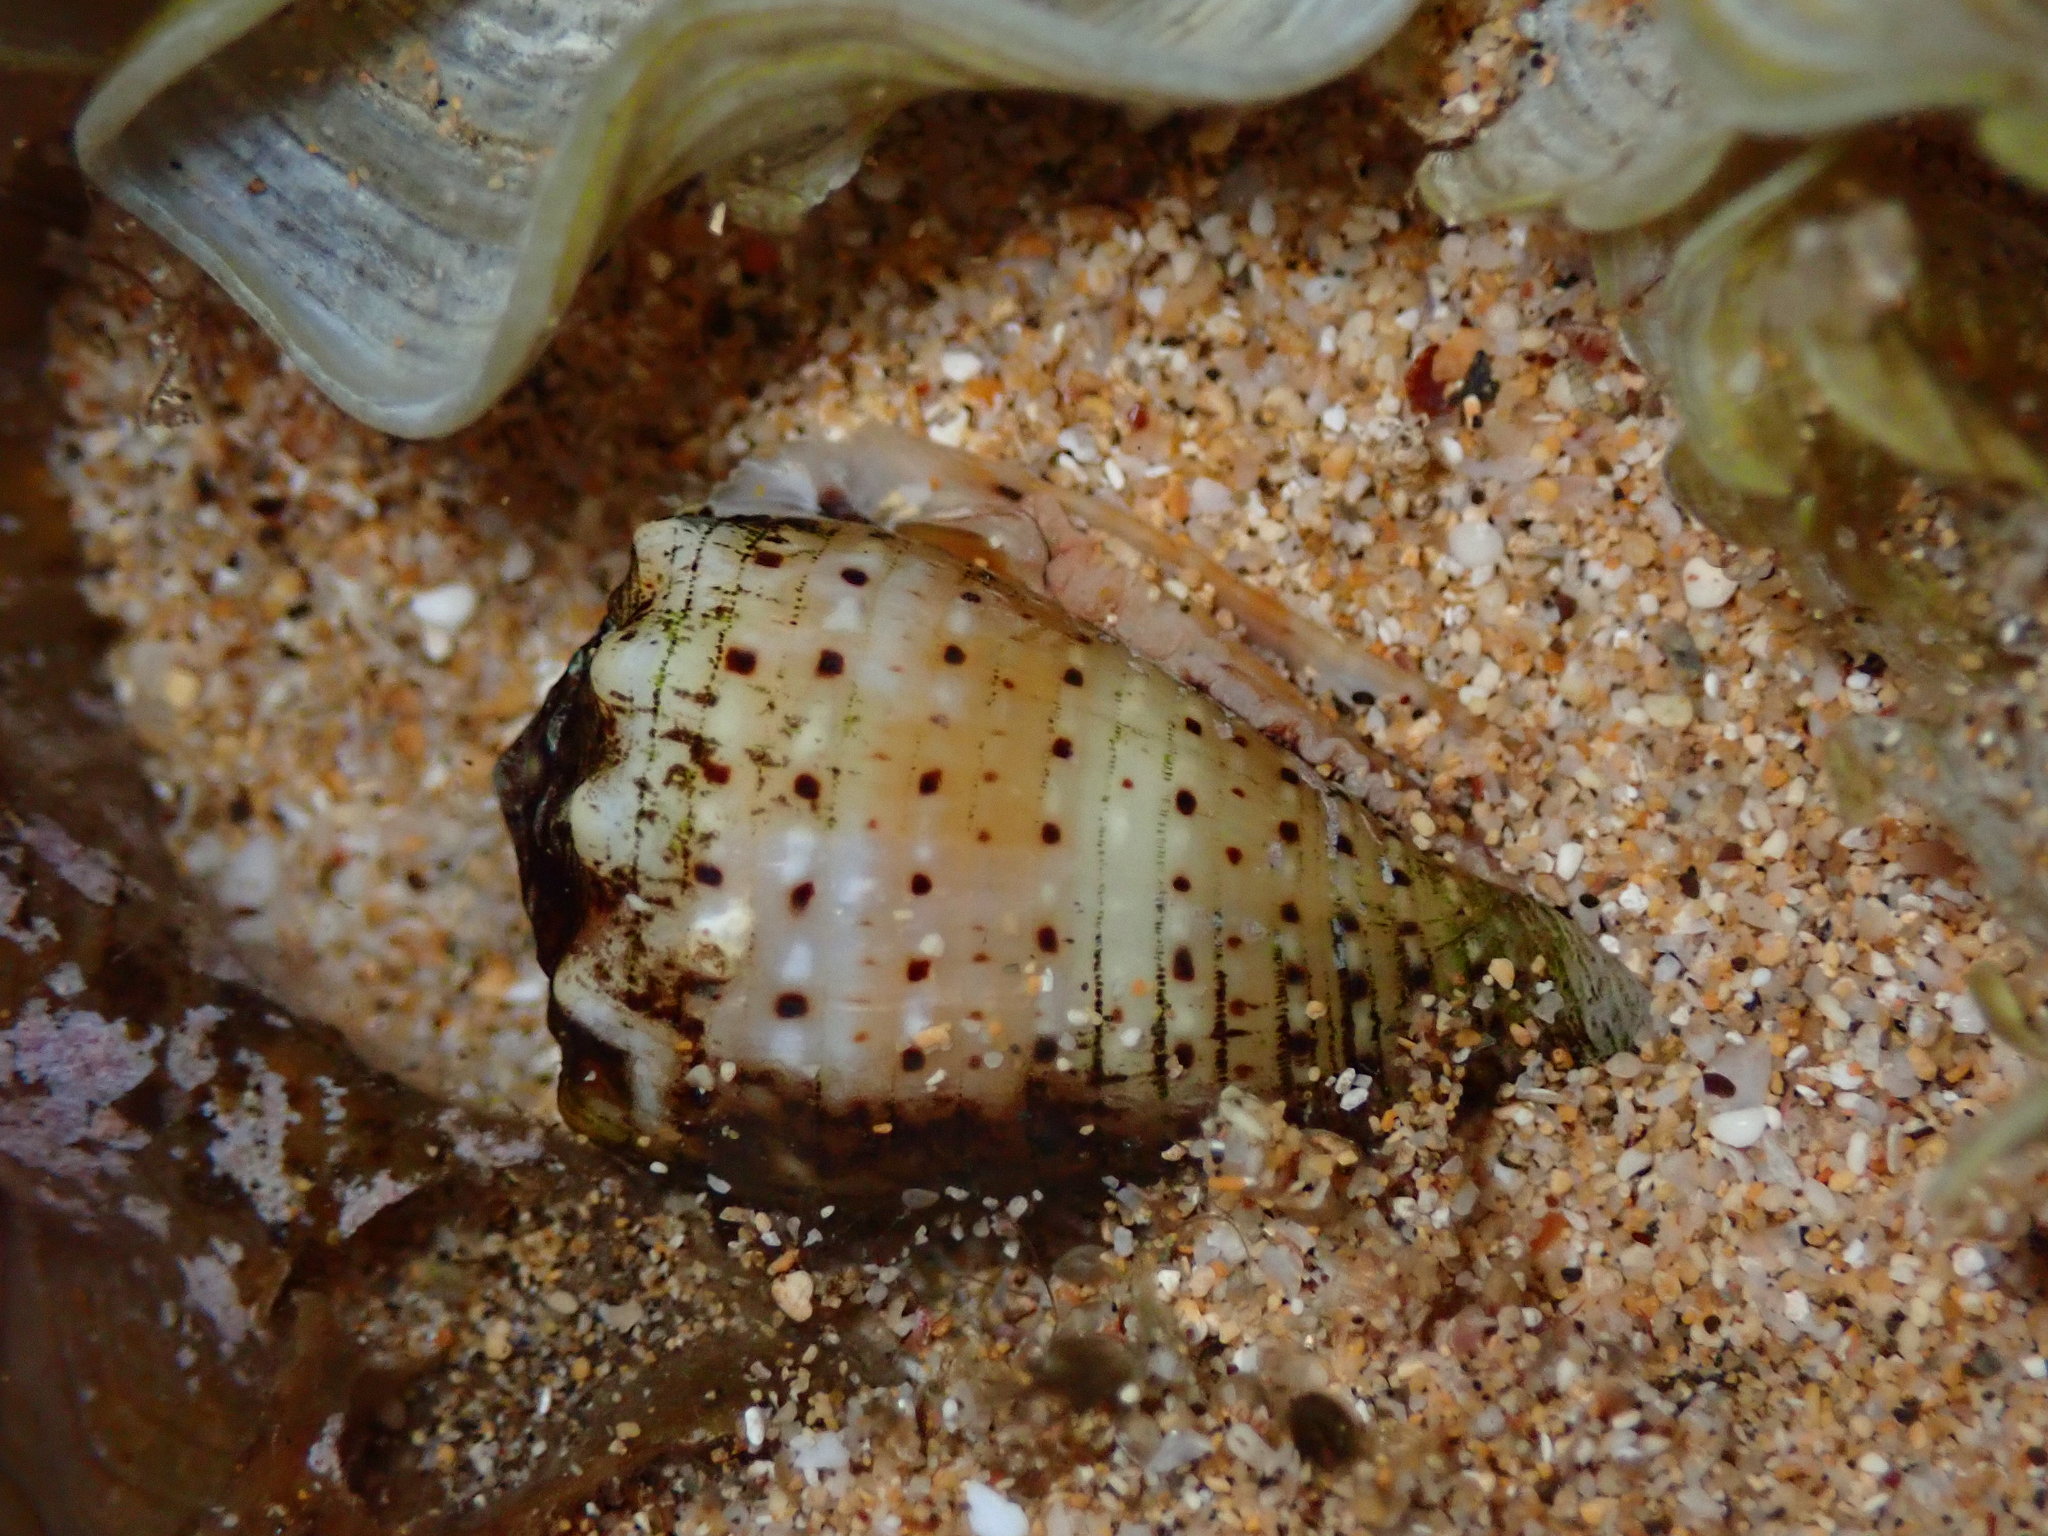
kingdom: Animalia
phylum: Mollusca
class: Gastropoda
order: Neogastropoda
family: Conidae
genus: Conus
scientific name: Conus abbreviatus
